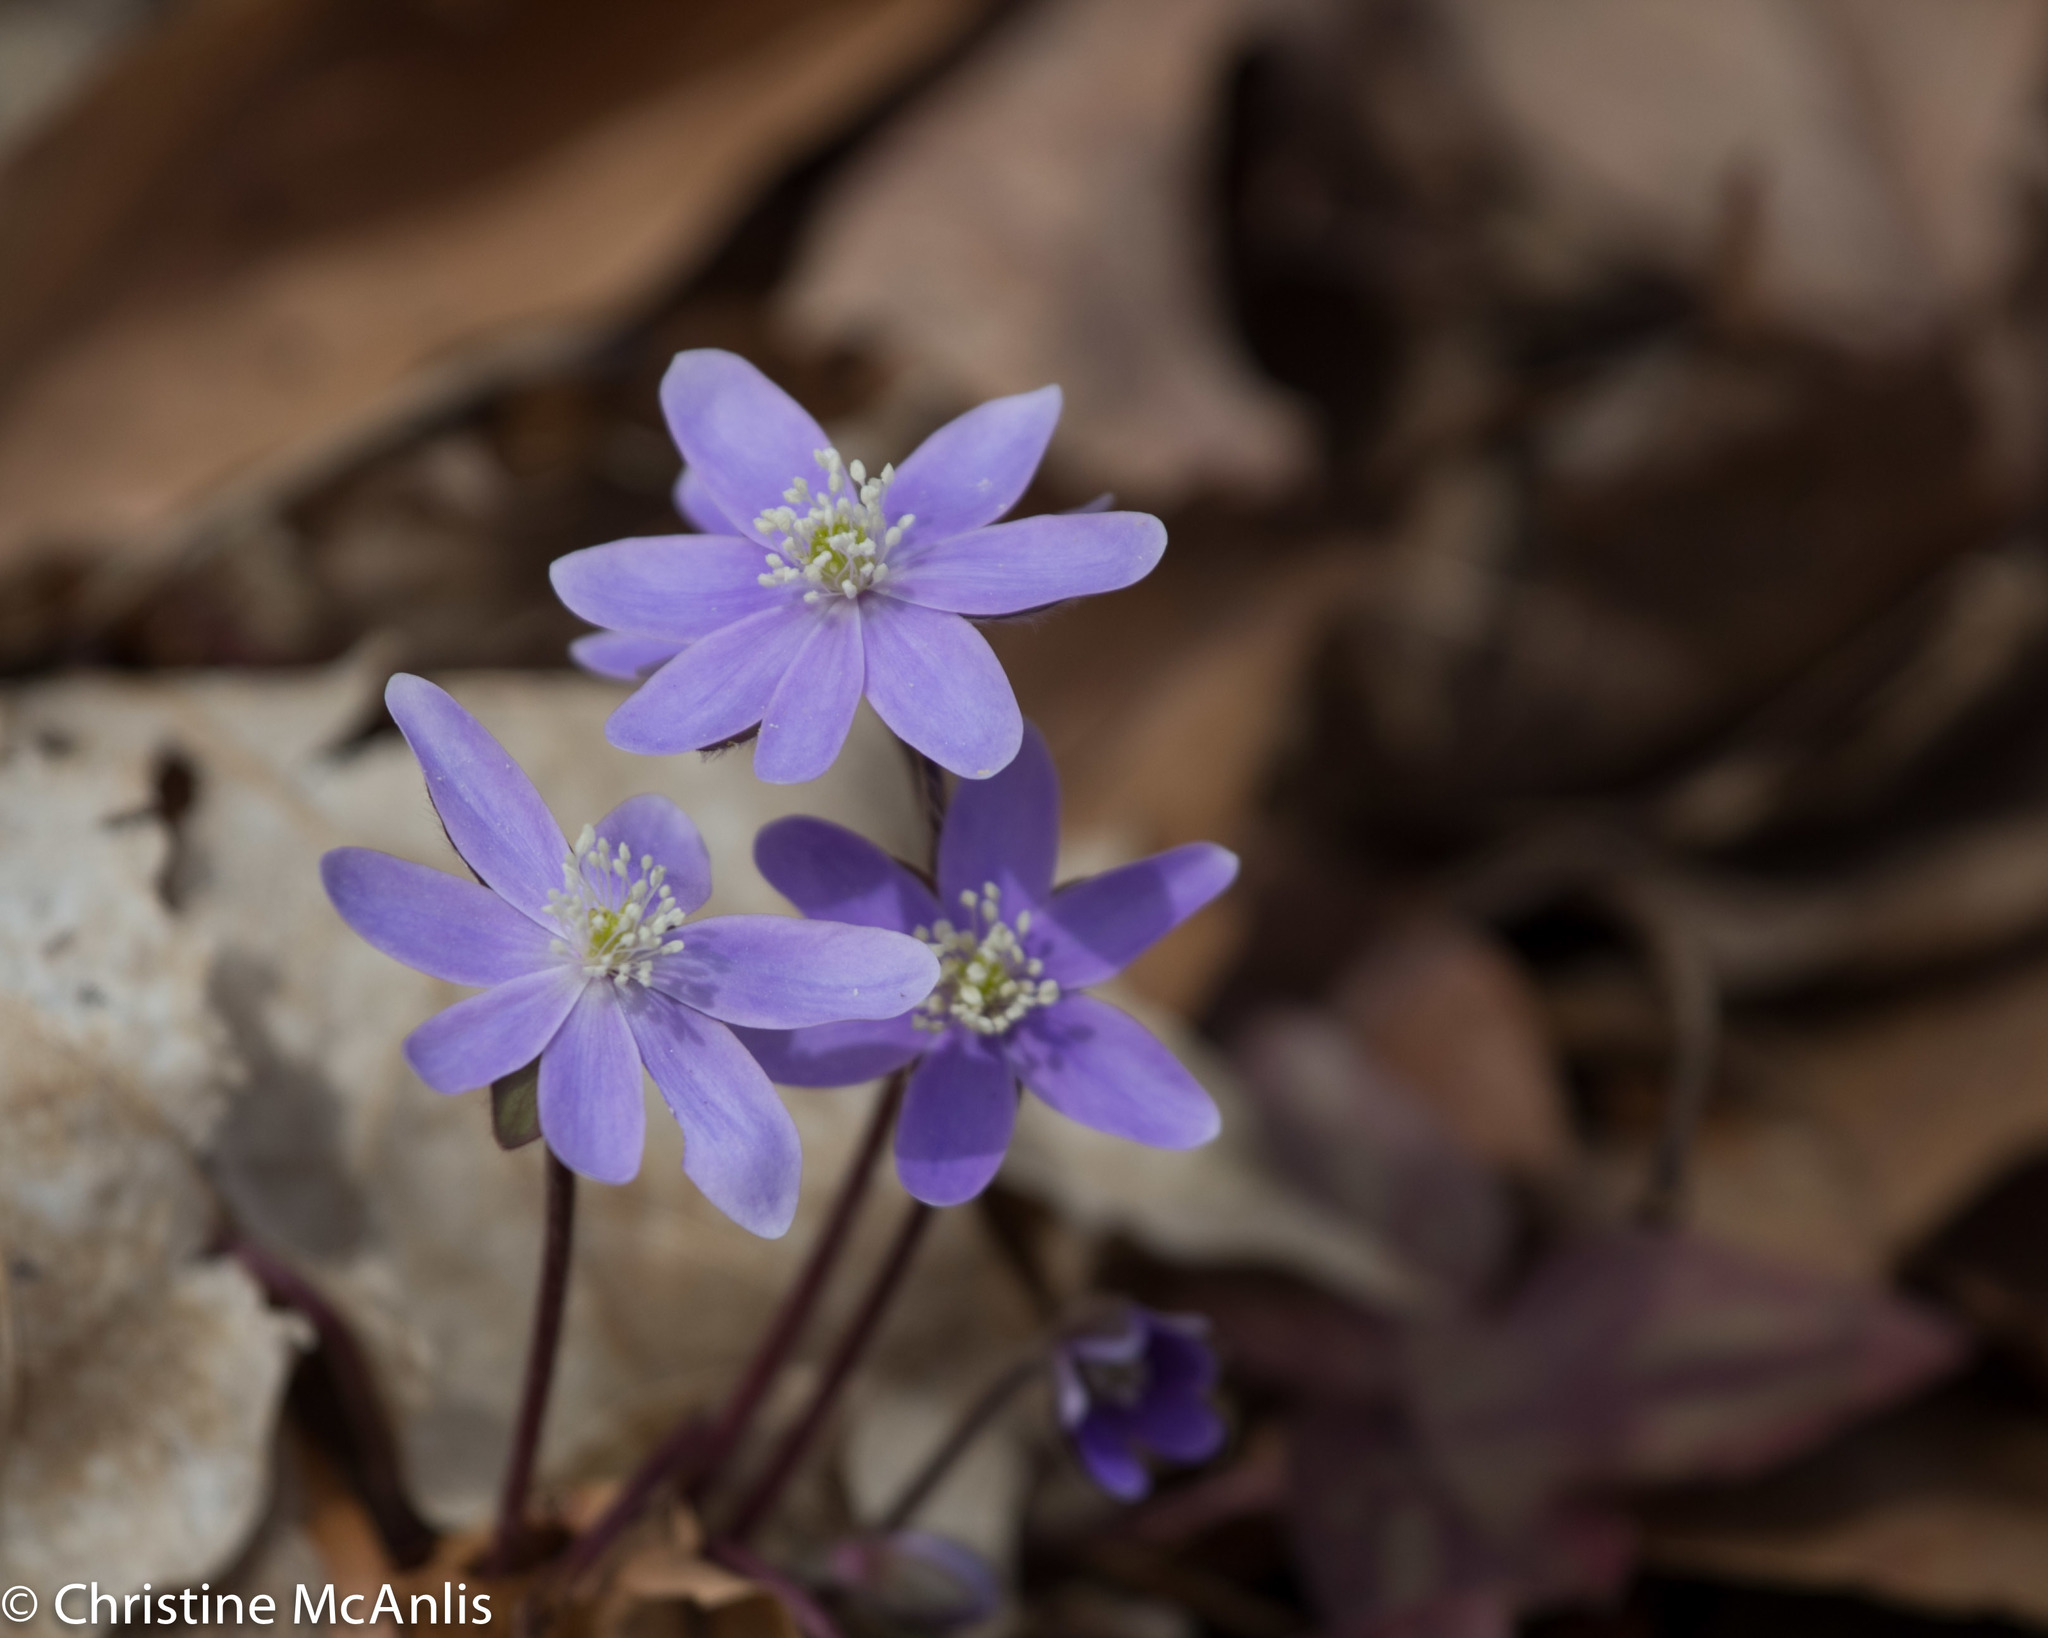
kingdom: Plantae
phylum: Tracheophyta
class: Magnoliopsida
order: Ranunculales
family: Ranunculaceae
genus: Hepatica
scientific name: Hepatica acutiloba
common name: Sharp-lobed hepatica
